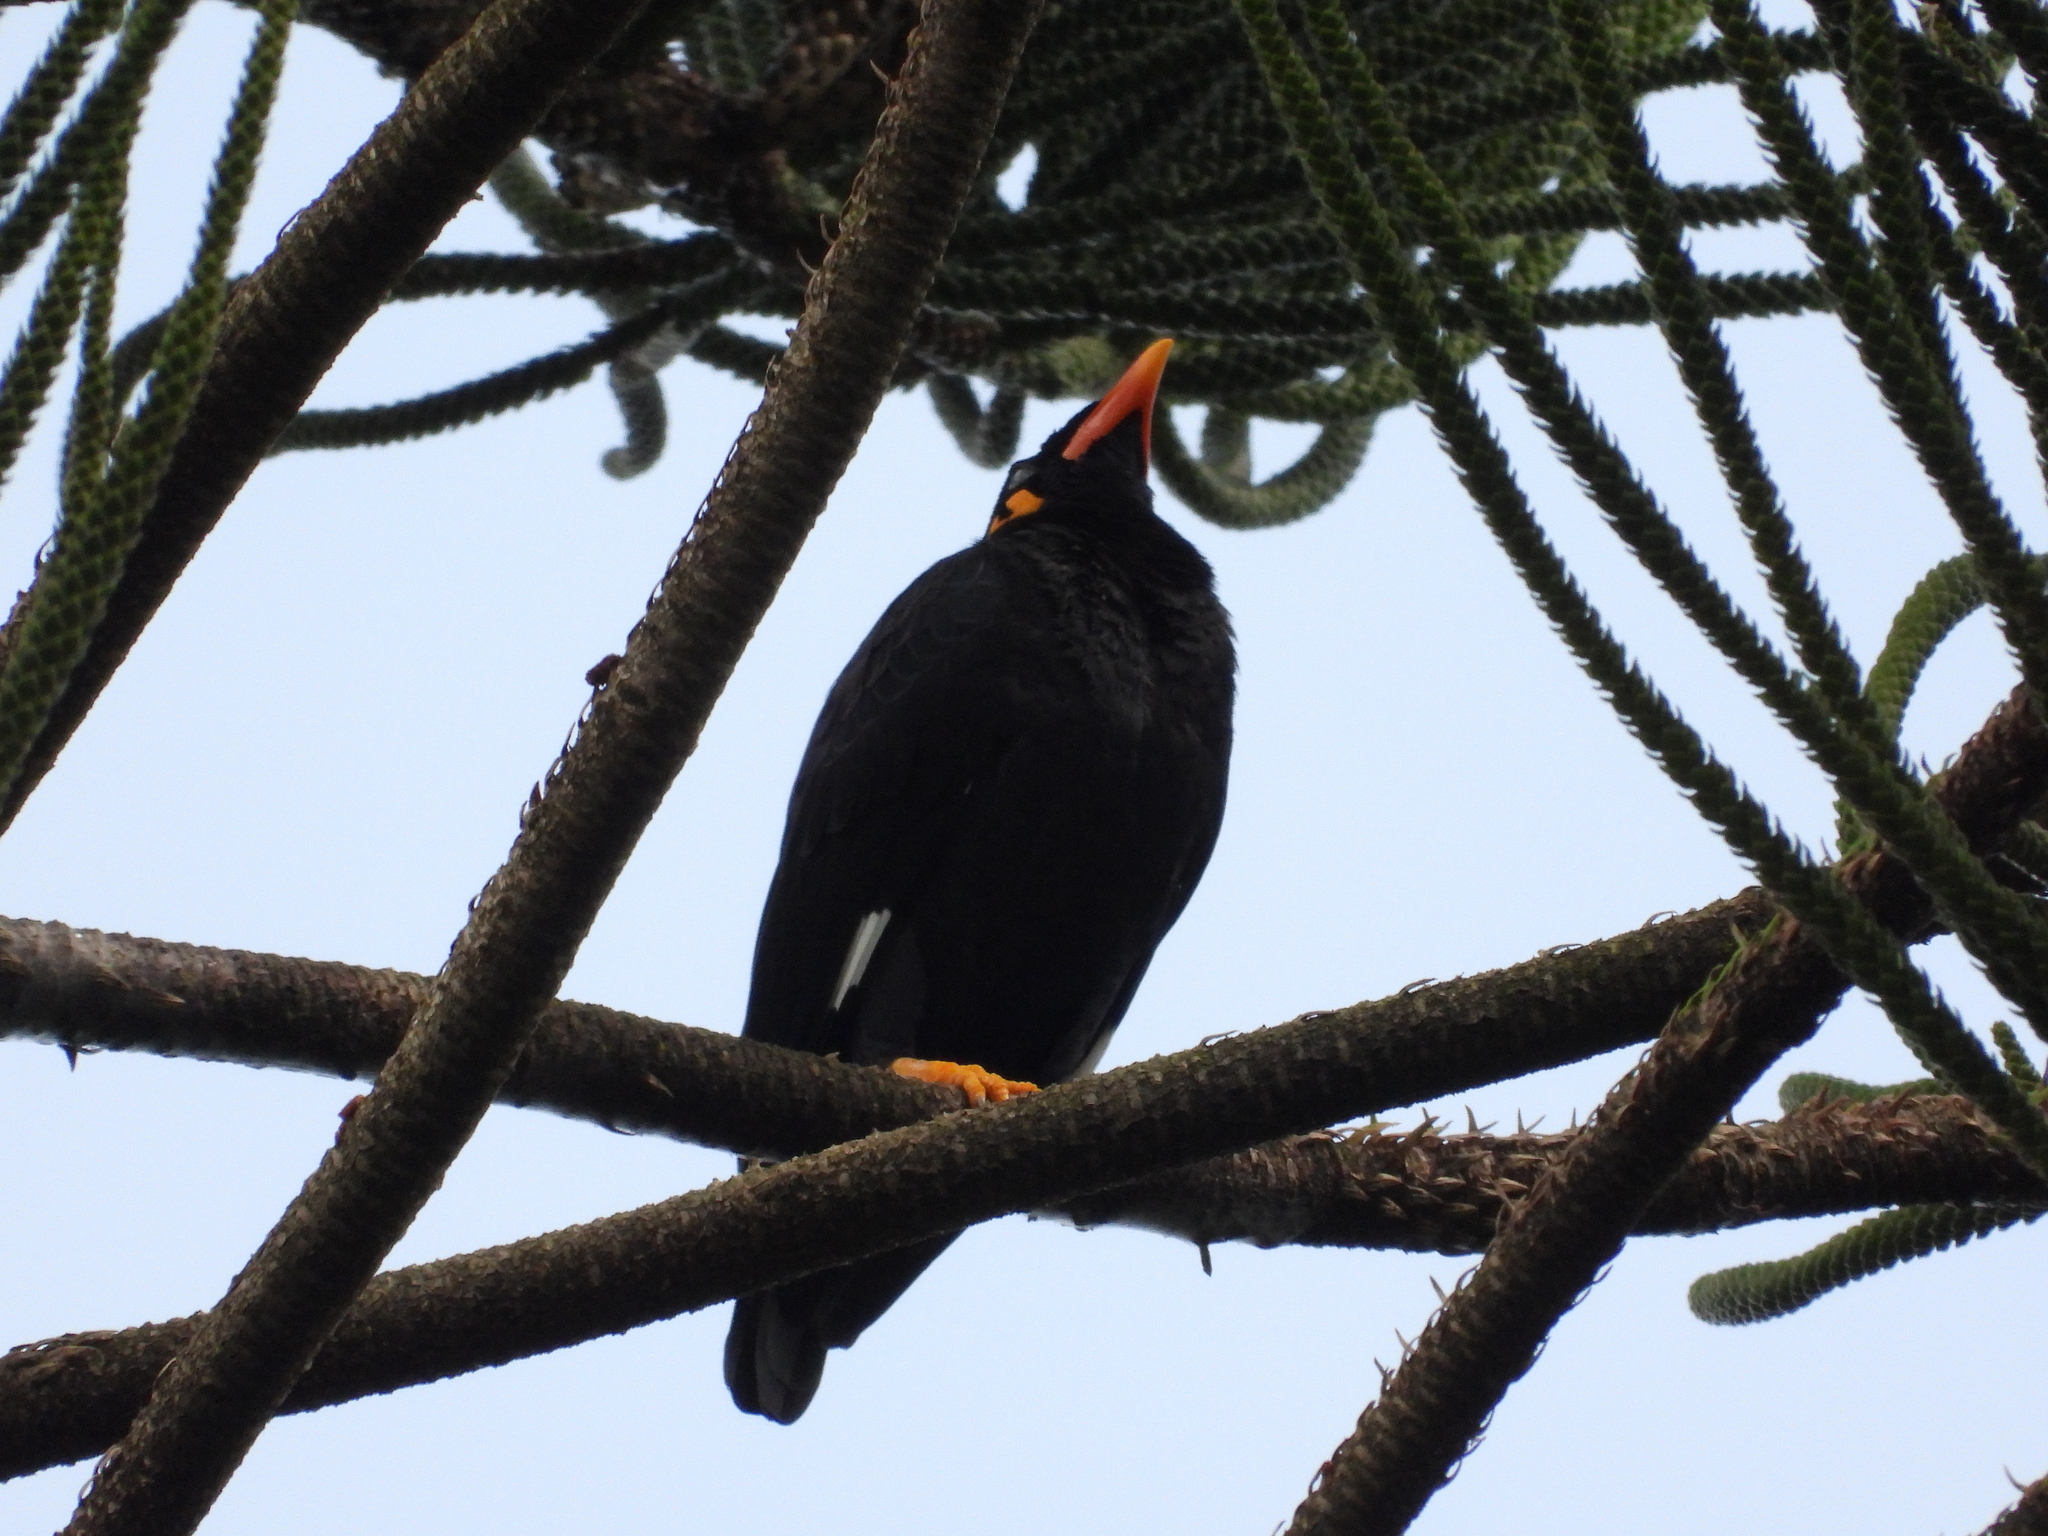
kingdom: Animalia
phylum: Chordata
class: Aves
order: Passeriformes
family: Sturnidae
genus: Gracula
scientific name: Gracula religiosa
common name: Common hill myna
